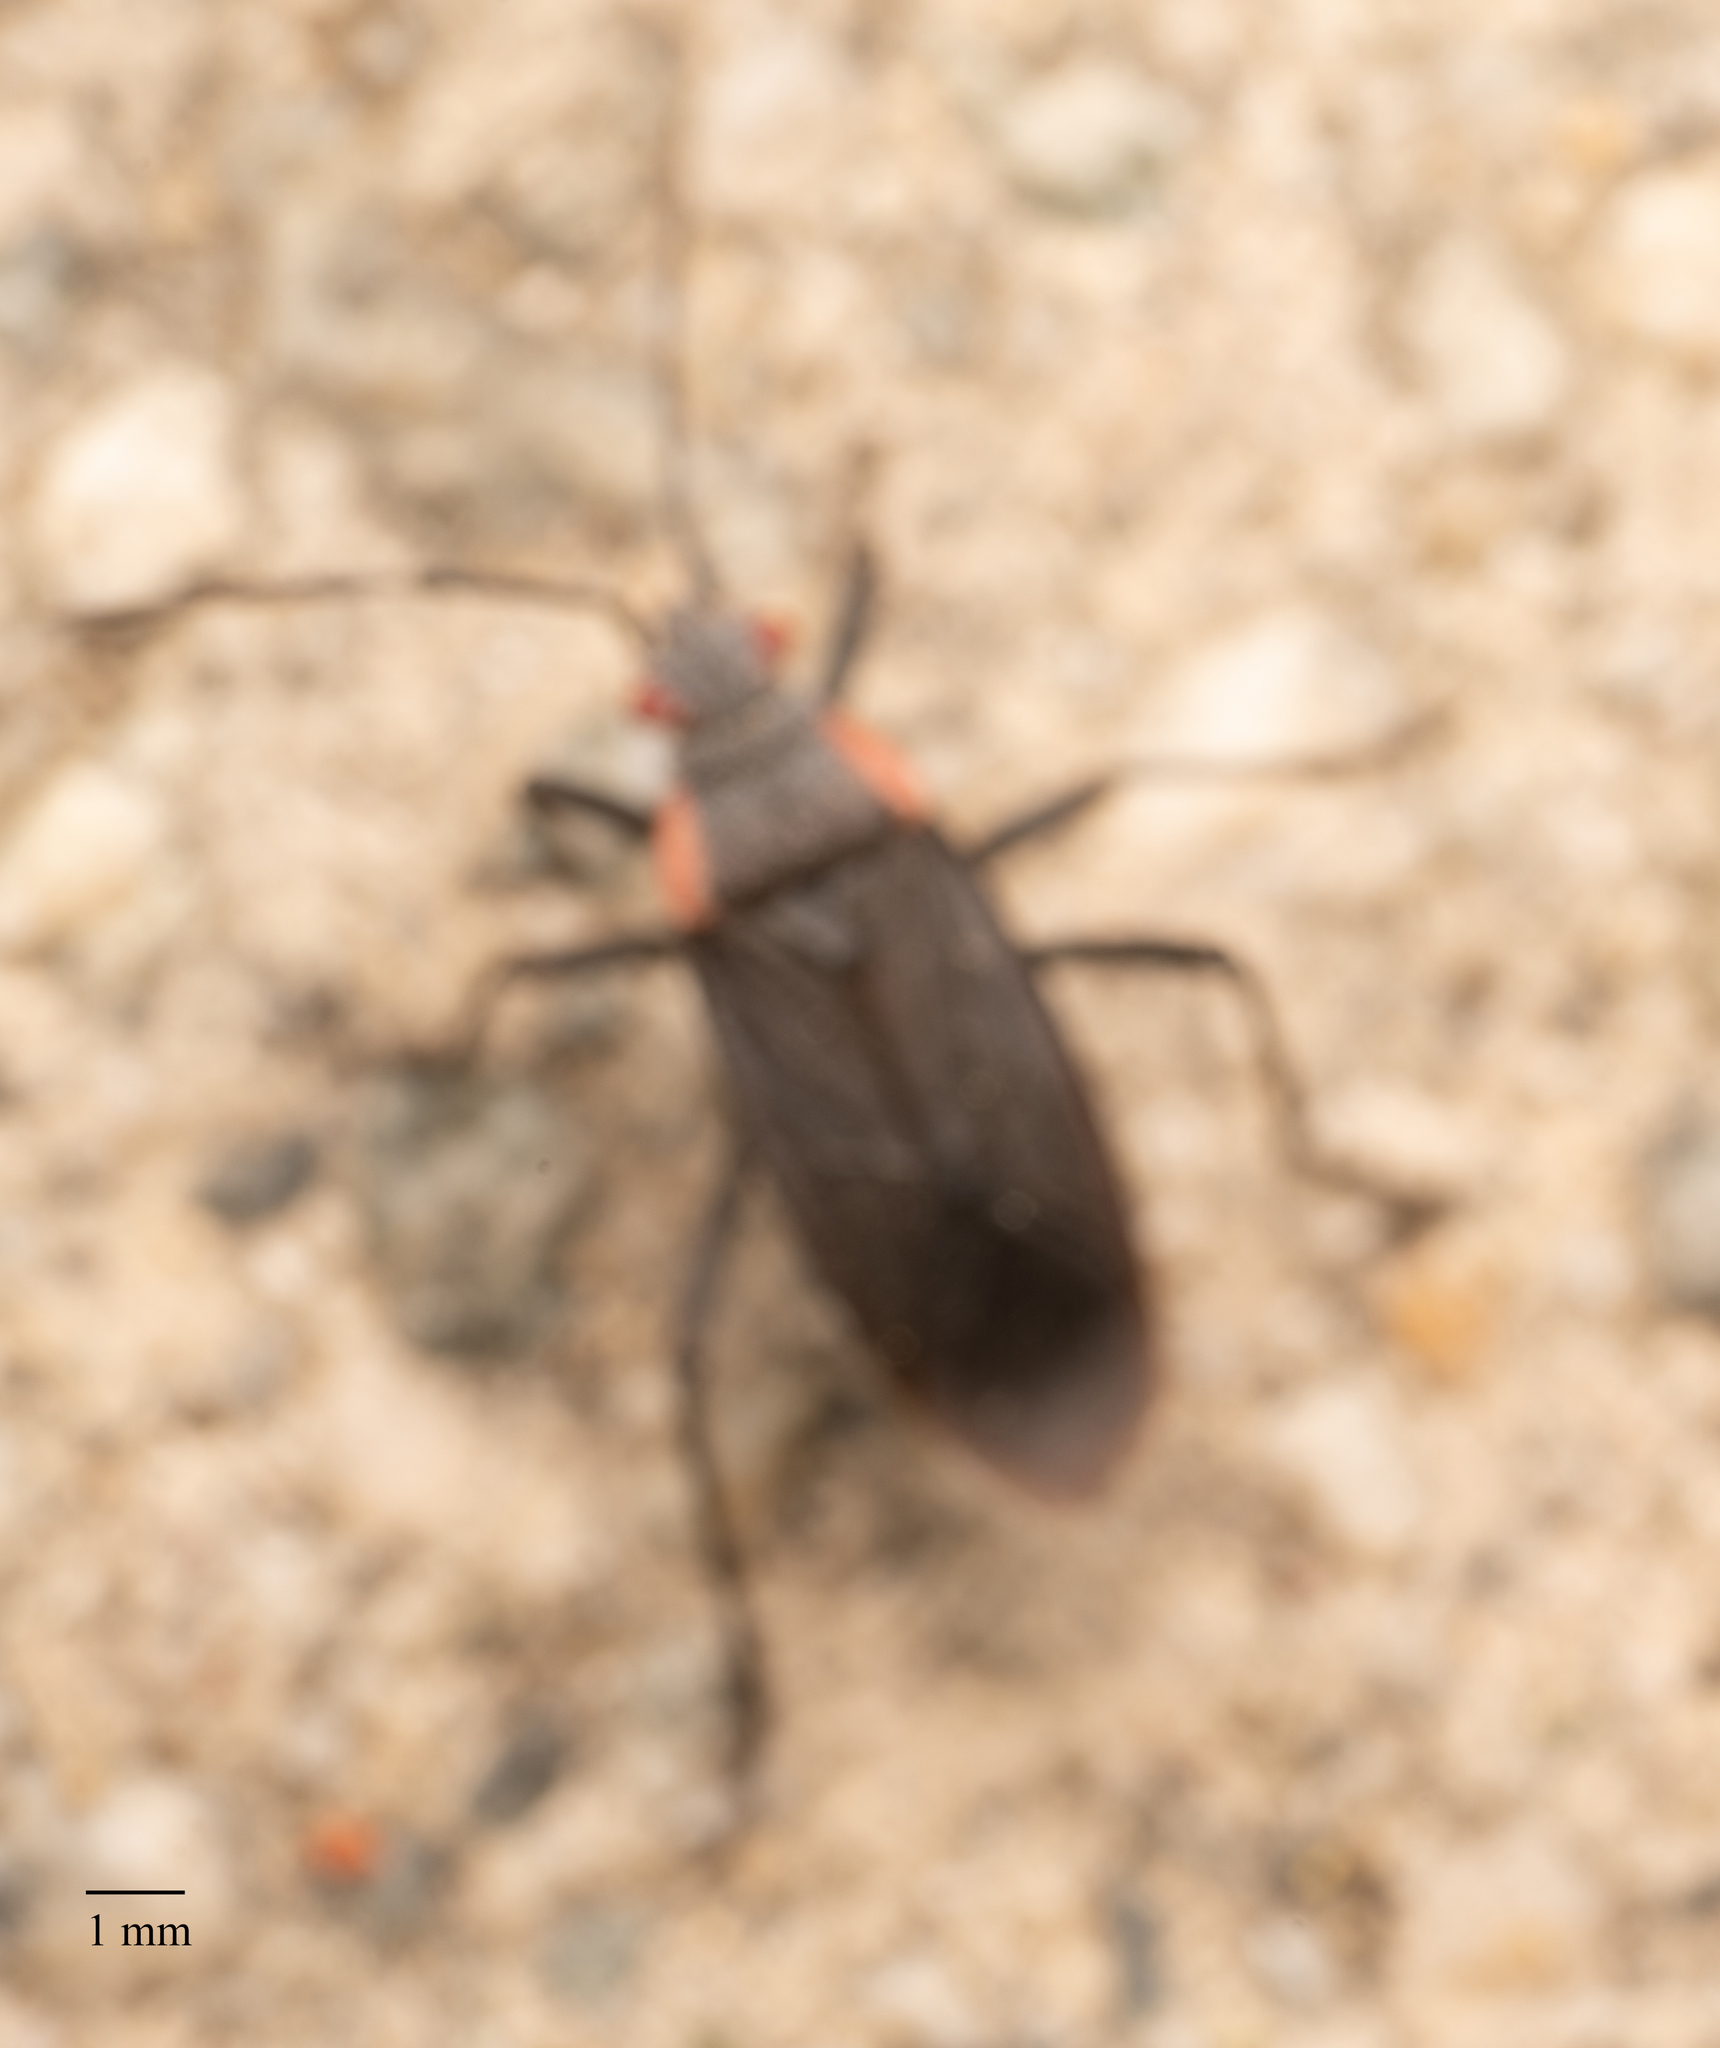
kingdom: Animalia
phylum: Arthropoda
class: Insecta
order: Hemiptera
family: Rhopalidae
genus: Jadera
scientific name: Jadera haematoloma
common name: Red-shouldered bug
